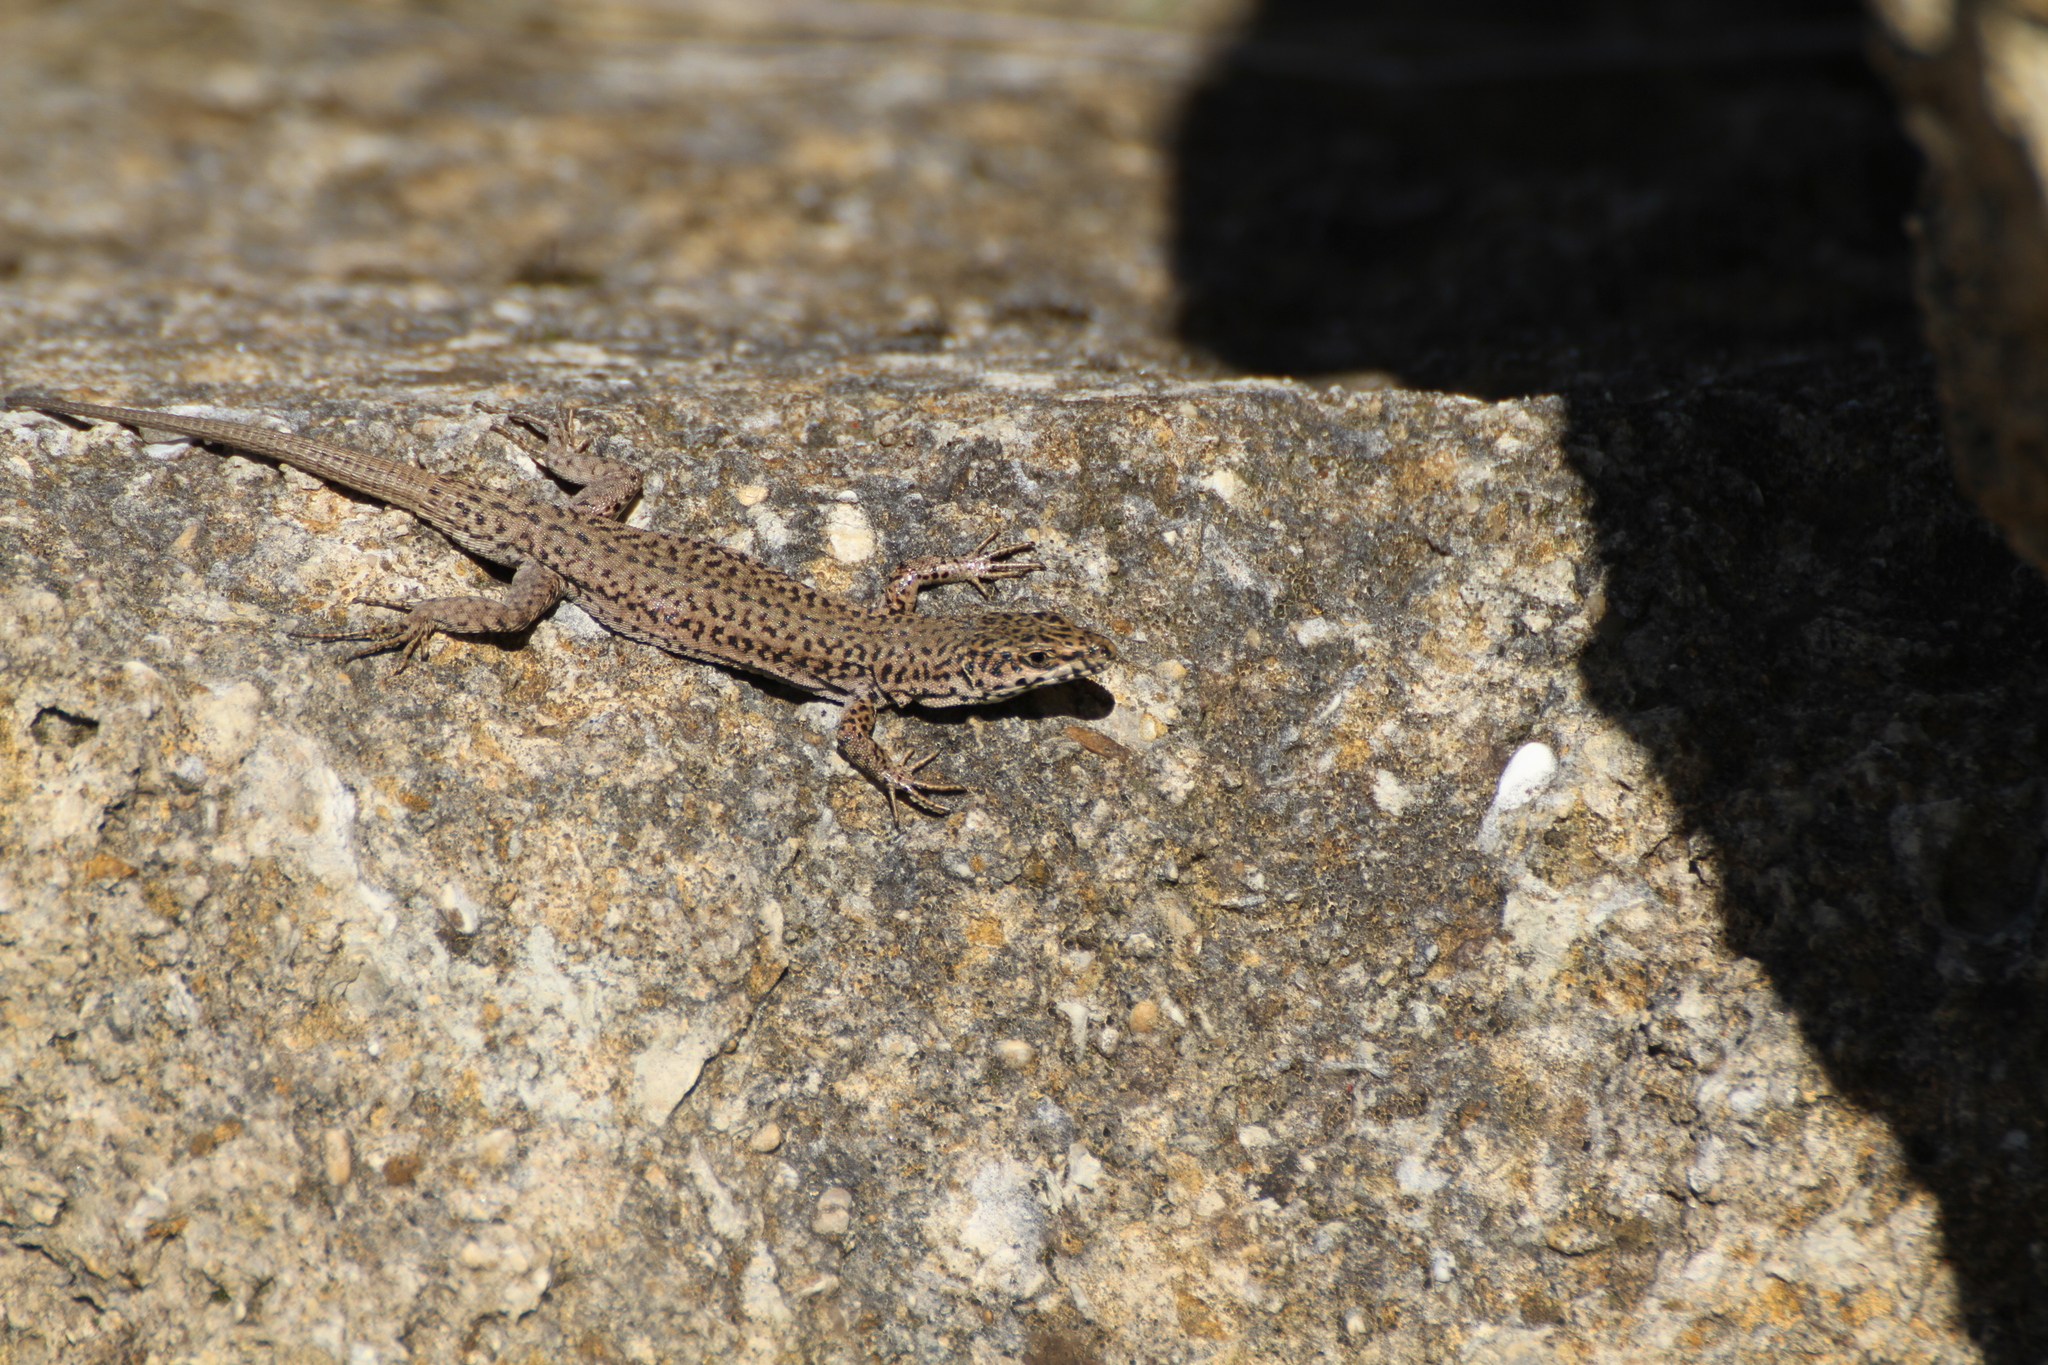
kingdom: Animalia
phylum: Chordata
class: Squamata
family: Lacertidae
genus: Podarcis
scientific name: Podarcis liolepis
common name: Catalonian wall lizard
